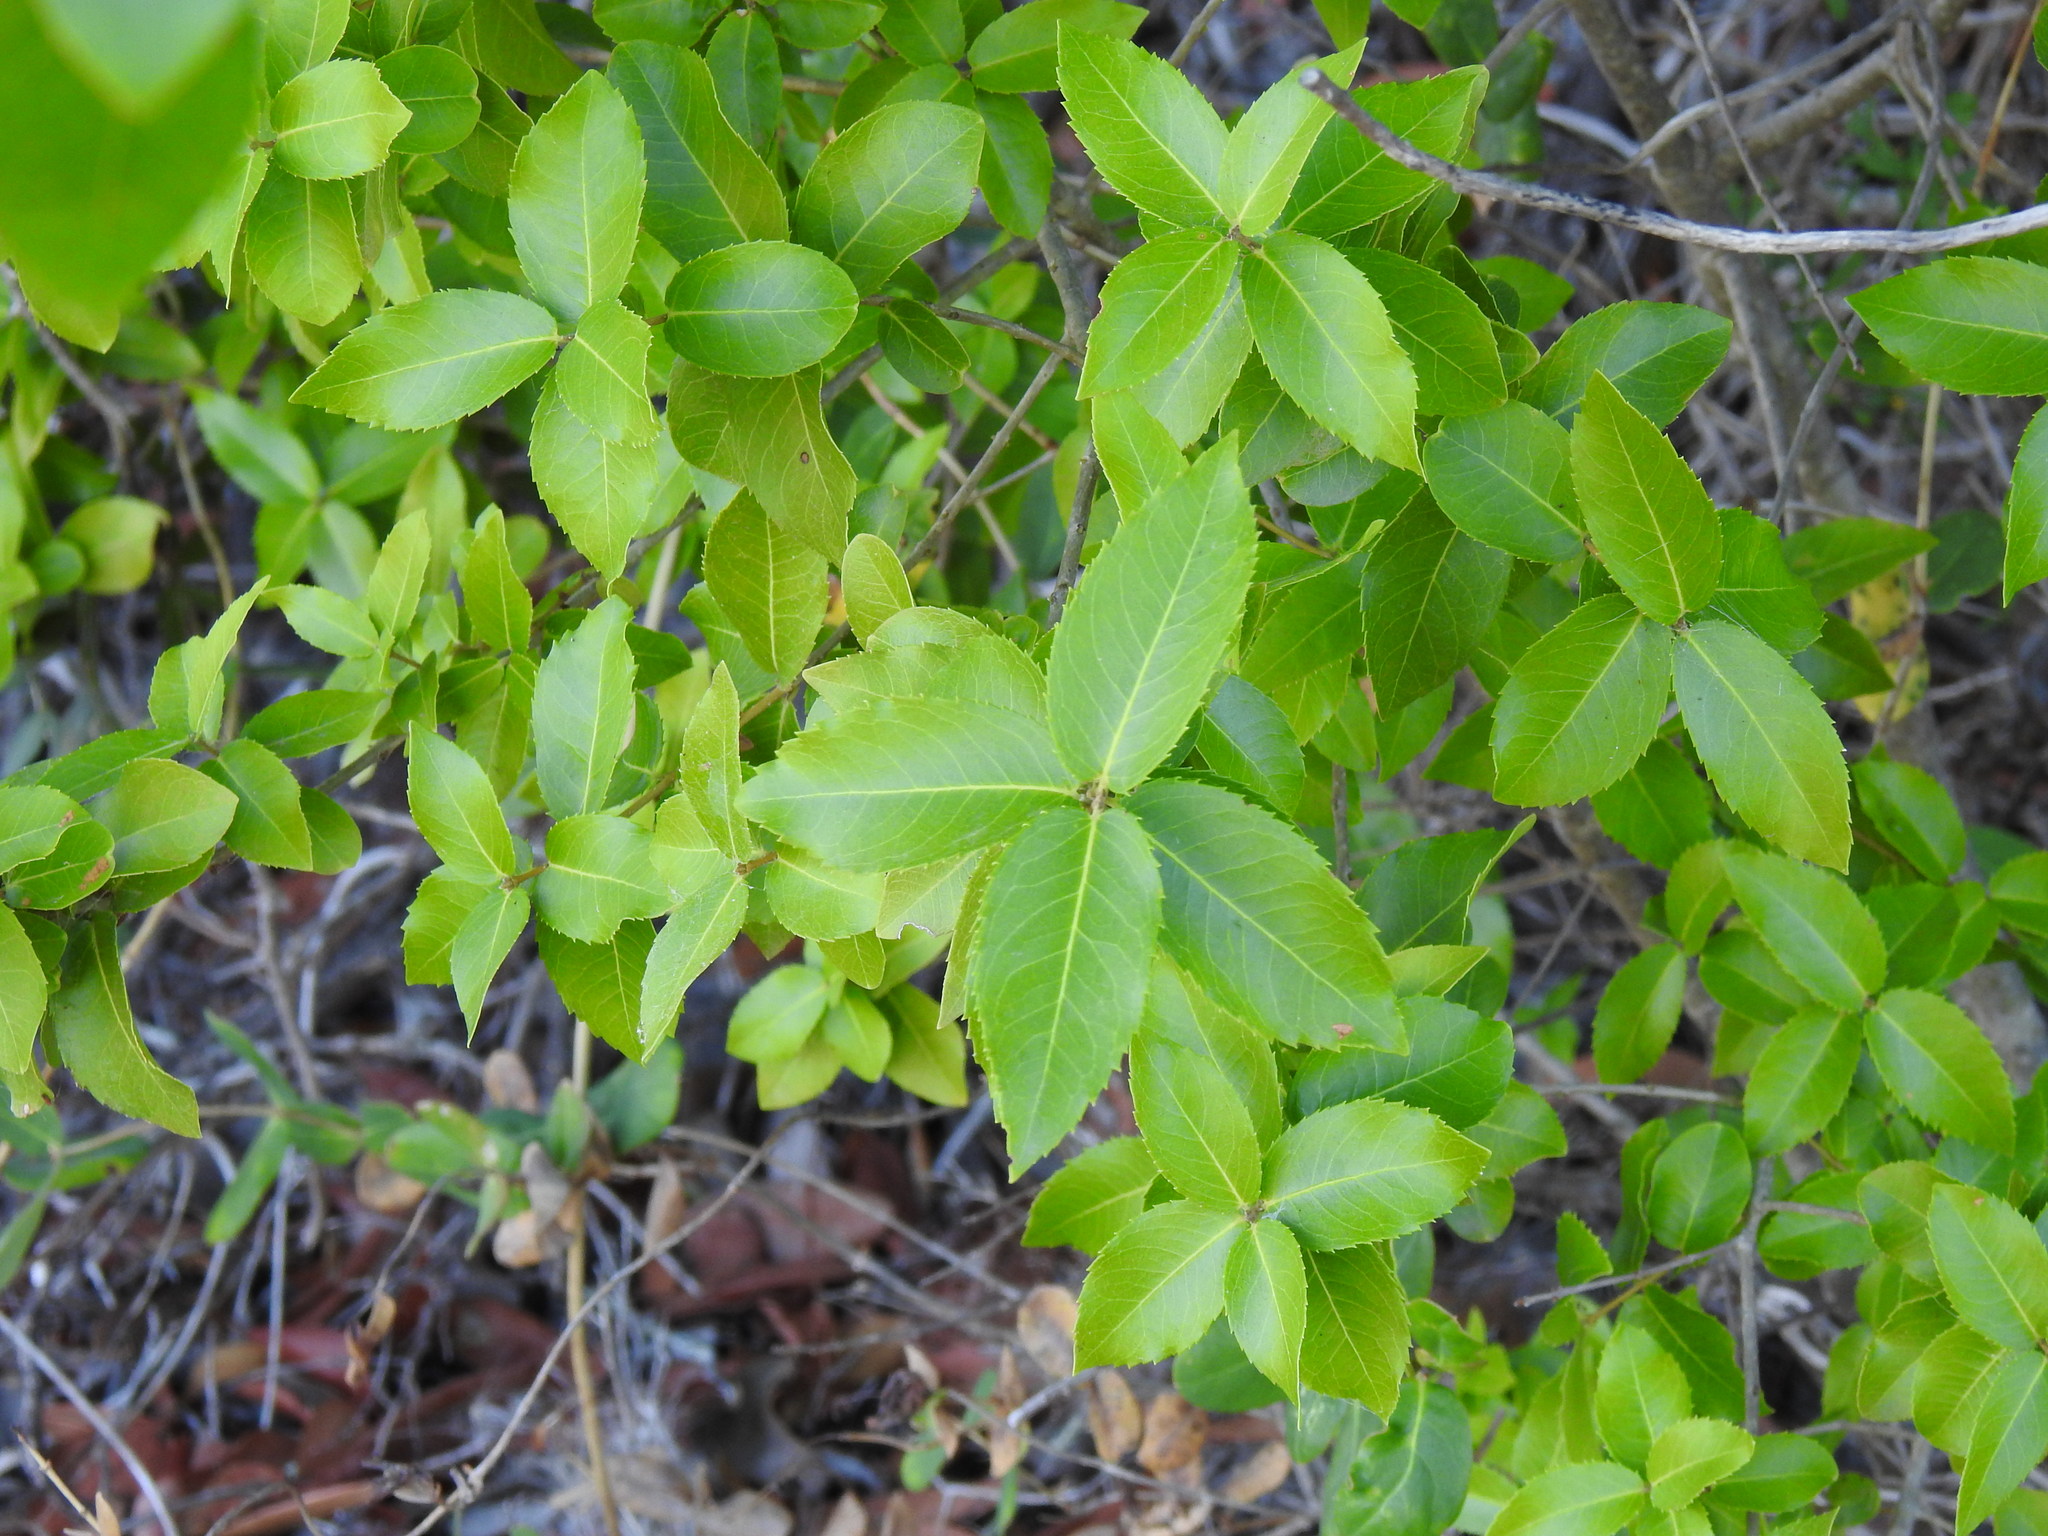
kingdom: Plantae
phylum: Tracheophyta
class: Magnoliopsida
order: Lamiales
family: Oleaceae
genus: Phillyrea
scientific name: Phillyrea latifolia
